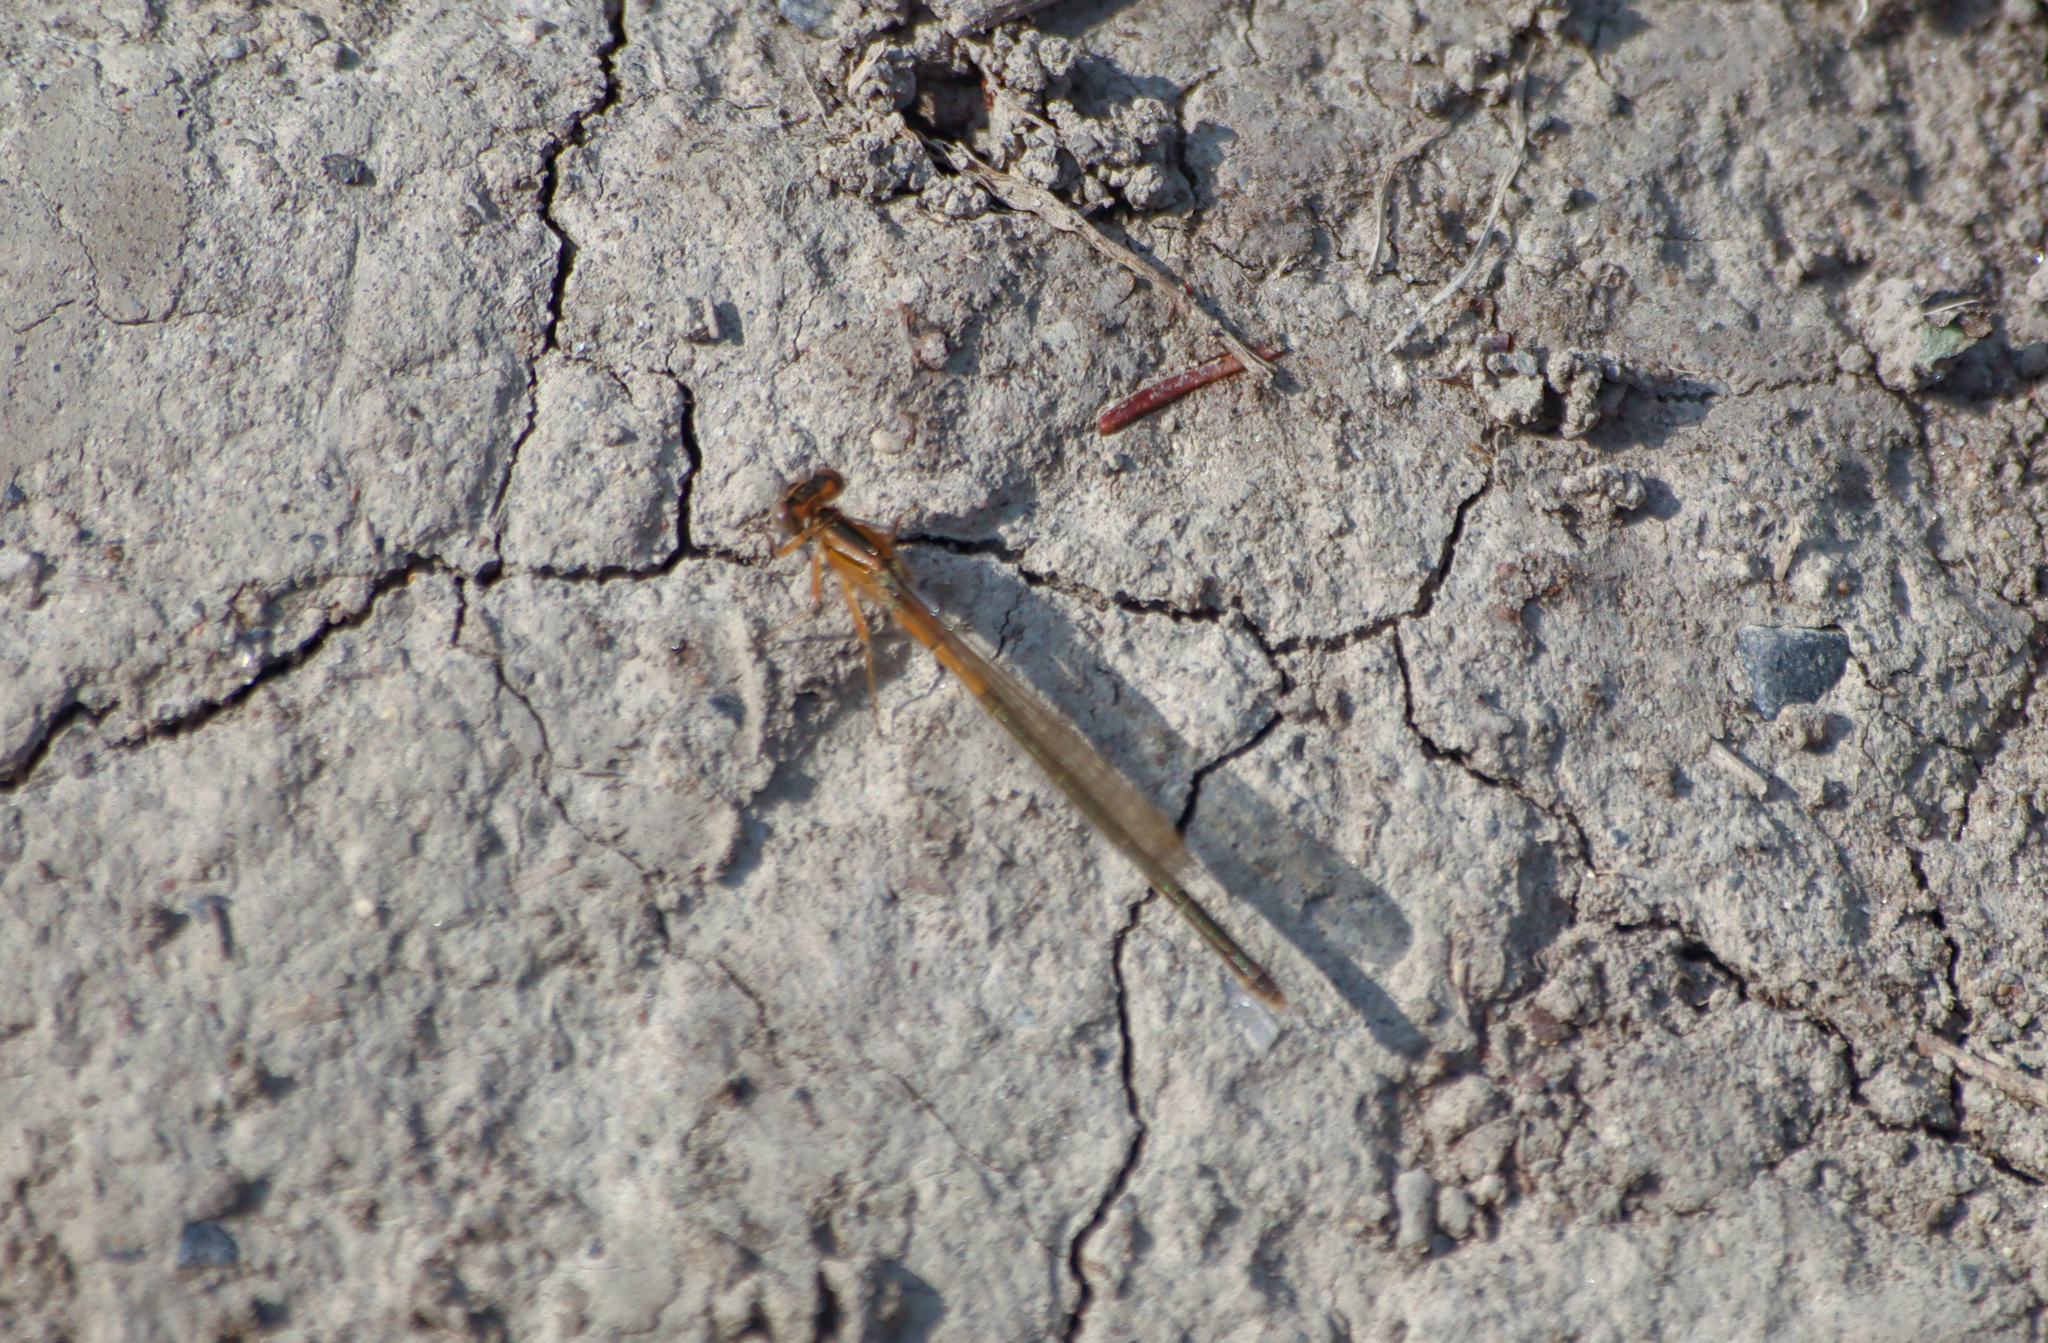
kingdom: Animalia
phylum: Arthropoda
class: Insecta
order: Odonata
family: Coenagrionidae
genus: Ischnura
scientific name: Ischnura verticalis
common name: Eastern forktail
